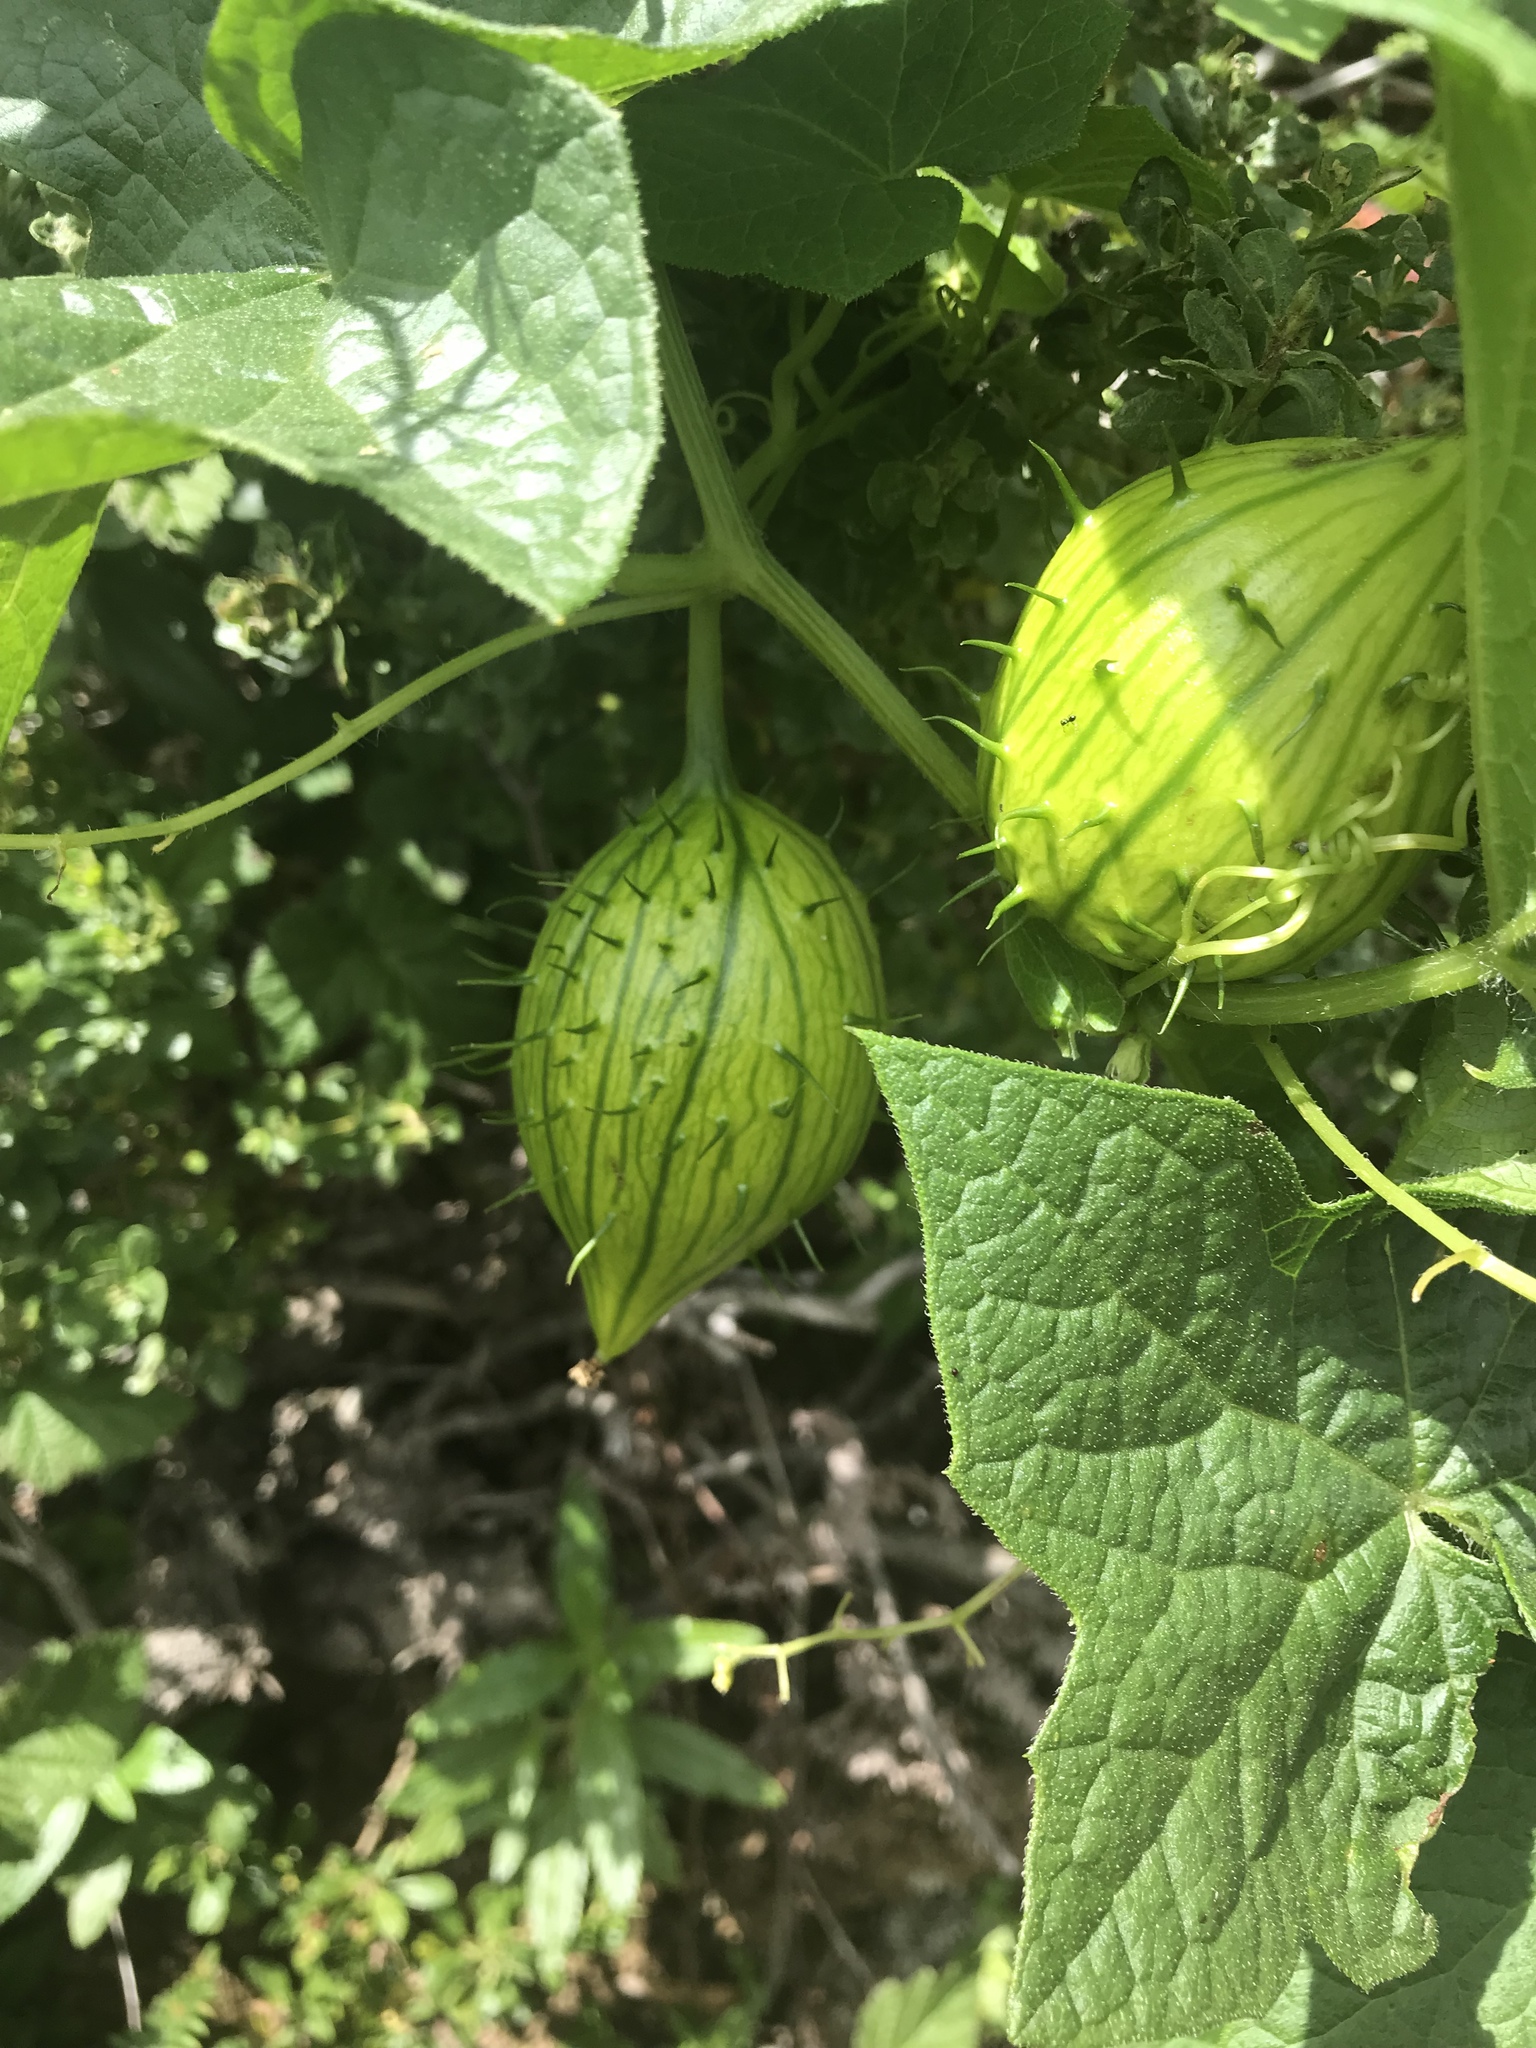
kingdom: Plantae
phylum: Tracheophyta
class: Magnoliopsida
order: Cucurbitales
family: Cucurbitaceae
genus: Marah
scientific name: Marah fabacea
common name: California manroot
